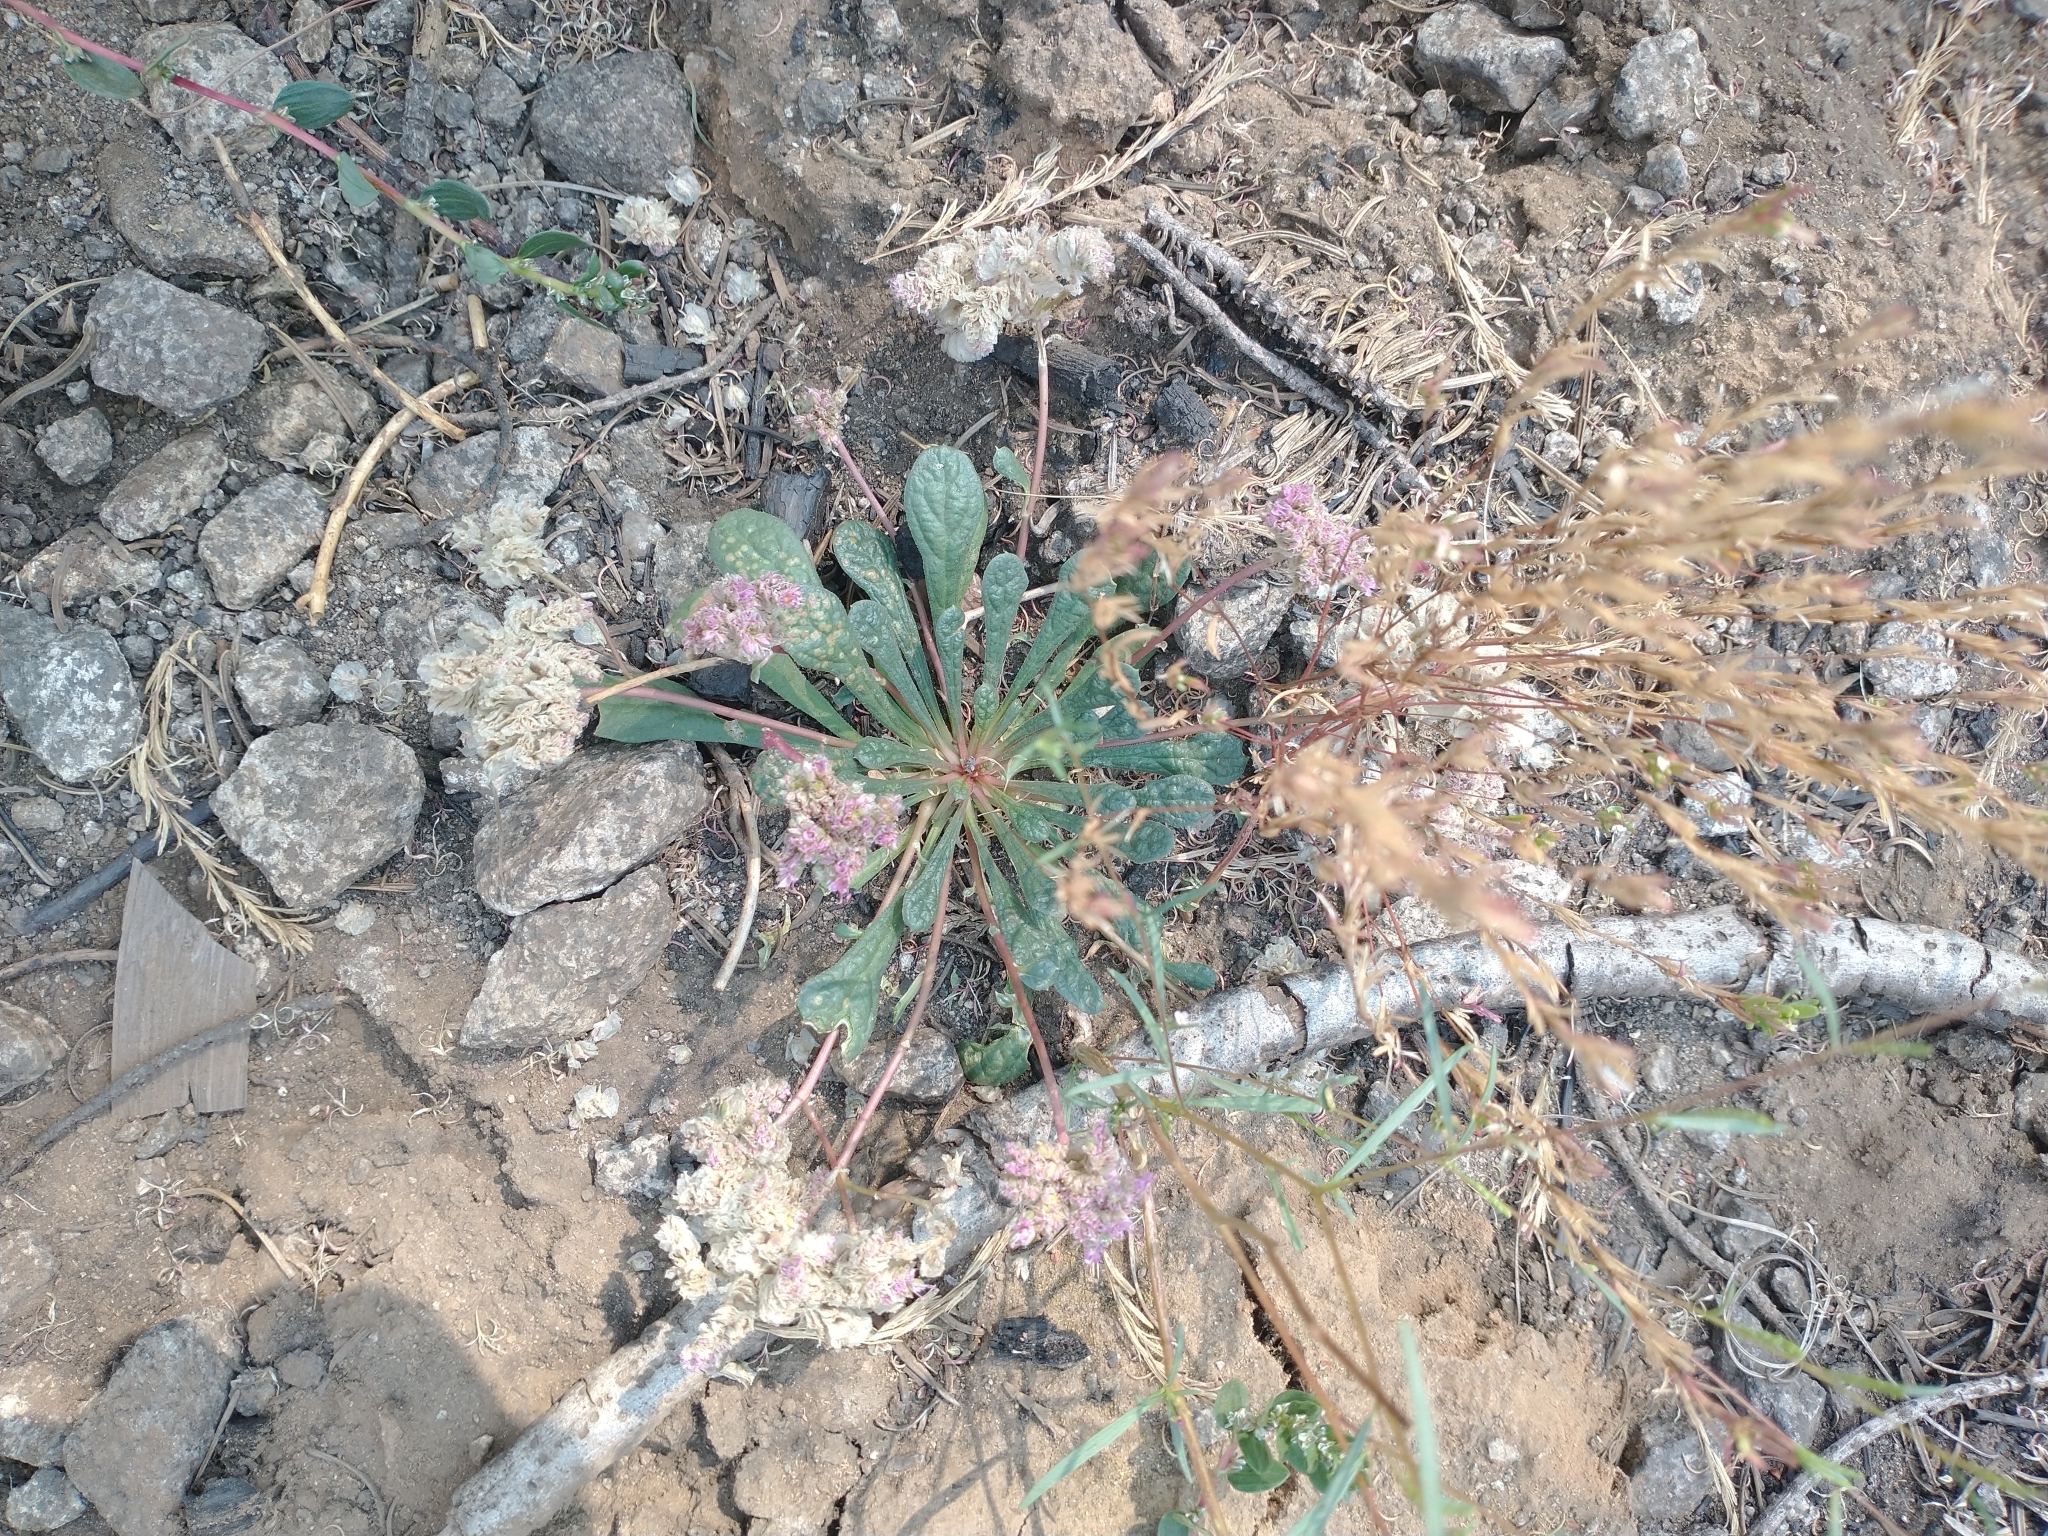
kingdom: Plantae
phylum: Tracheophyta
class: Magnoliopsida
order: Caryophyllales
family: Montiaceae
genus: Calyptridium
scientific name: Calyptridium monospermum
